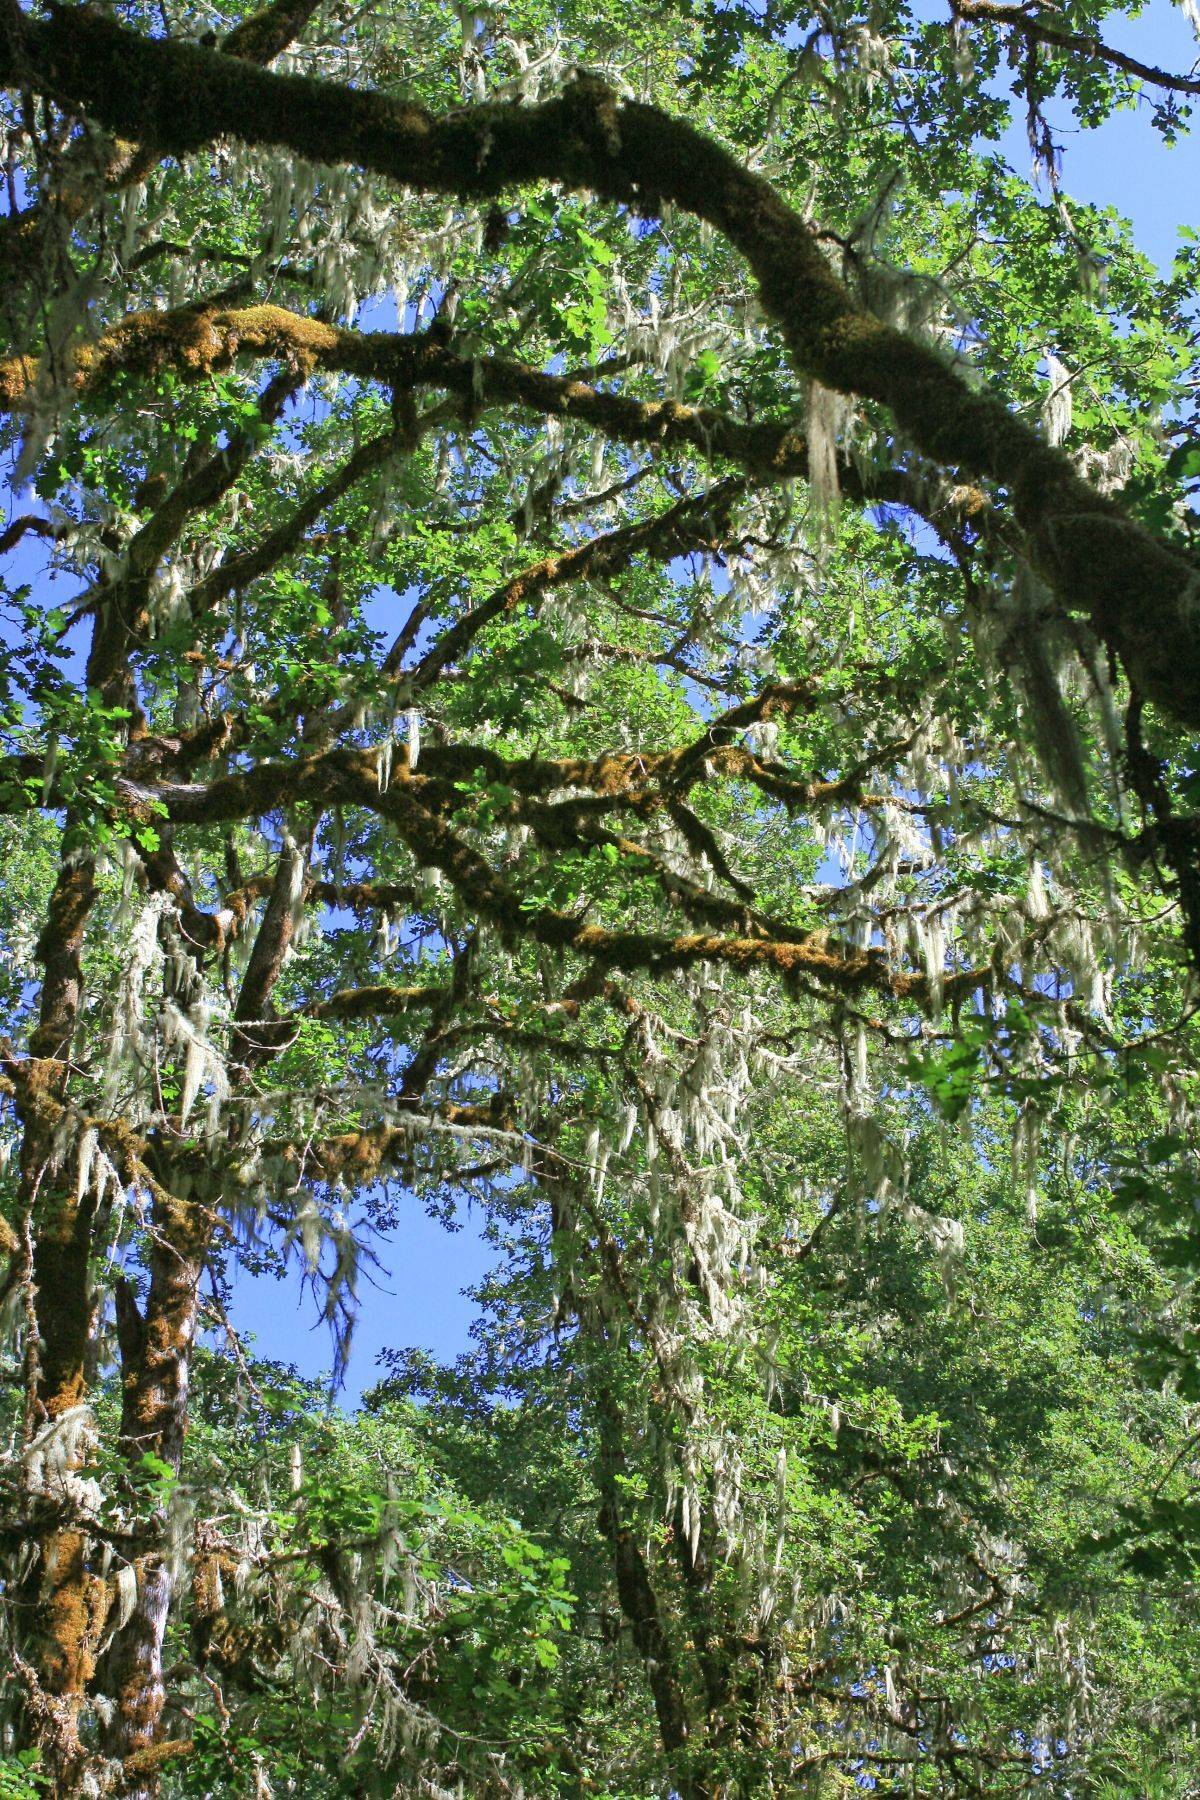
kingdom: Plantae
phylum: Tracheophyta
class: Magnoliopsida
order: Fagales
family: Fagaceae
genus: Quercus
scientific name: Quercus garryana
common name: Garry oak
